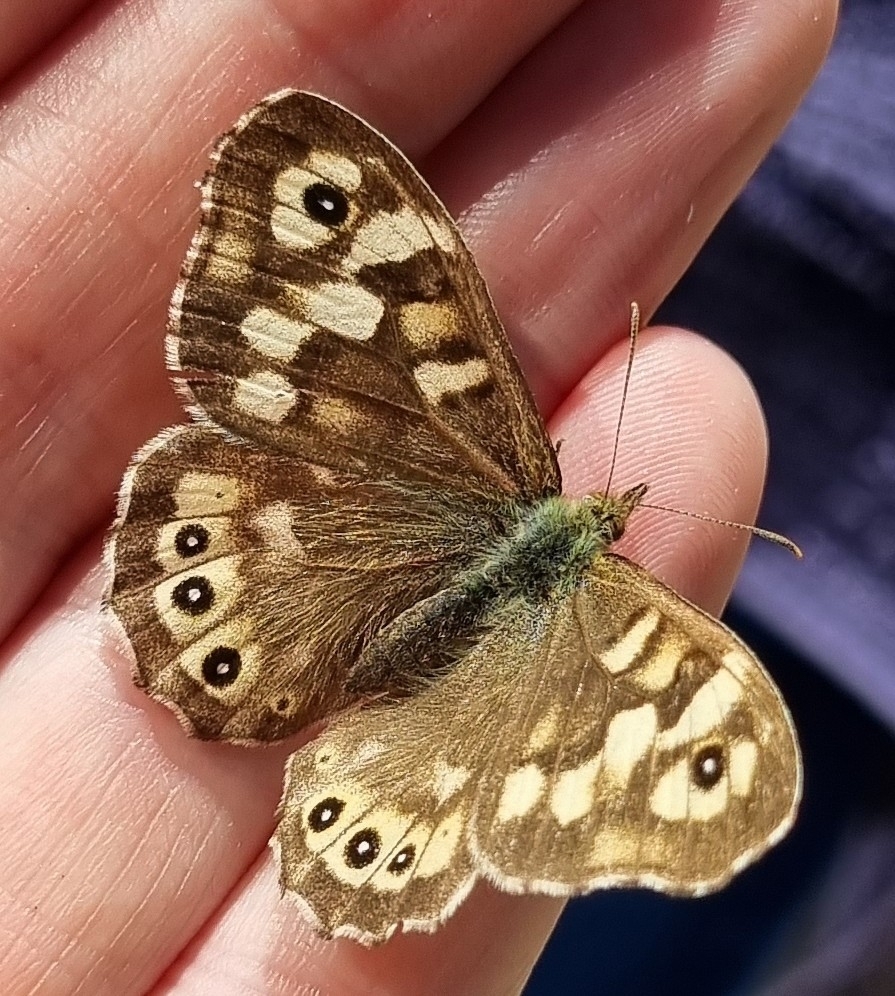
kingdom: Animalia
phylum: Arthropoda
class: Insecta
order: Lepidoptera
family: Nymphalidae
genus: Pararge
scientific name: Pararge aegeria
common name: Speckled wood
